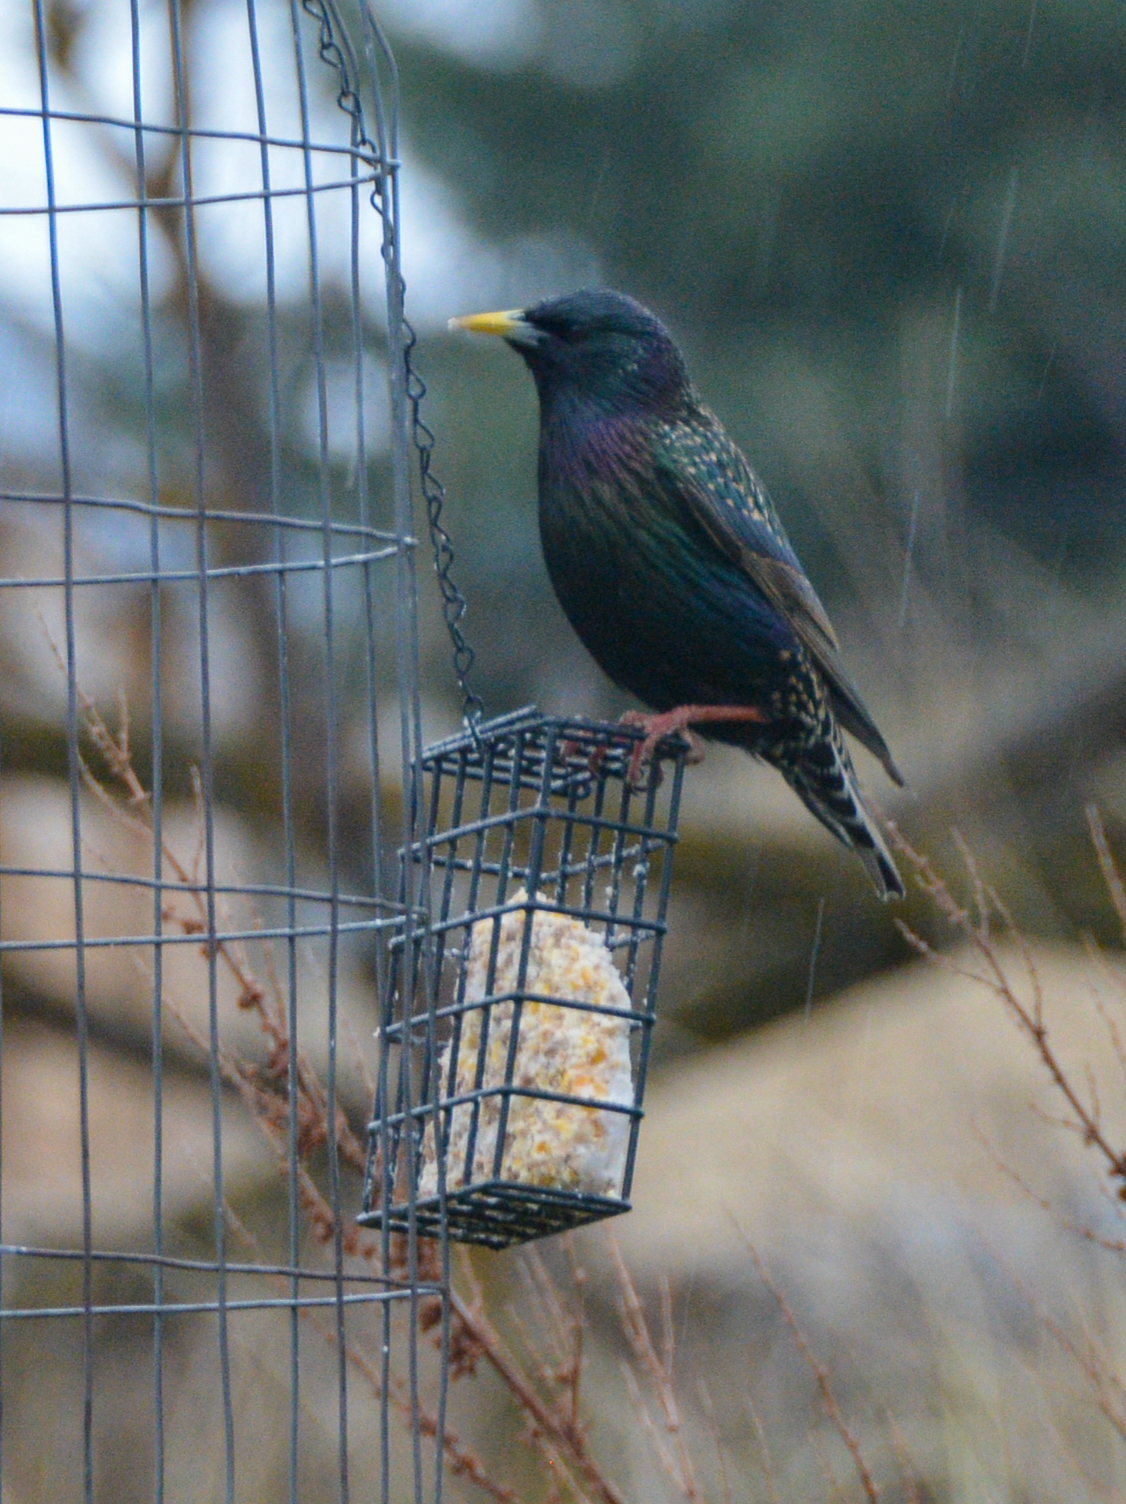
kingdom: Animalia
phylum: Chordata
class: Aves
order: Passeriformes
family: Sturnidae
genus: Sturnus
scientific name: Sturnus vulgaris
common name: Common starling
